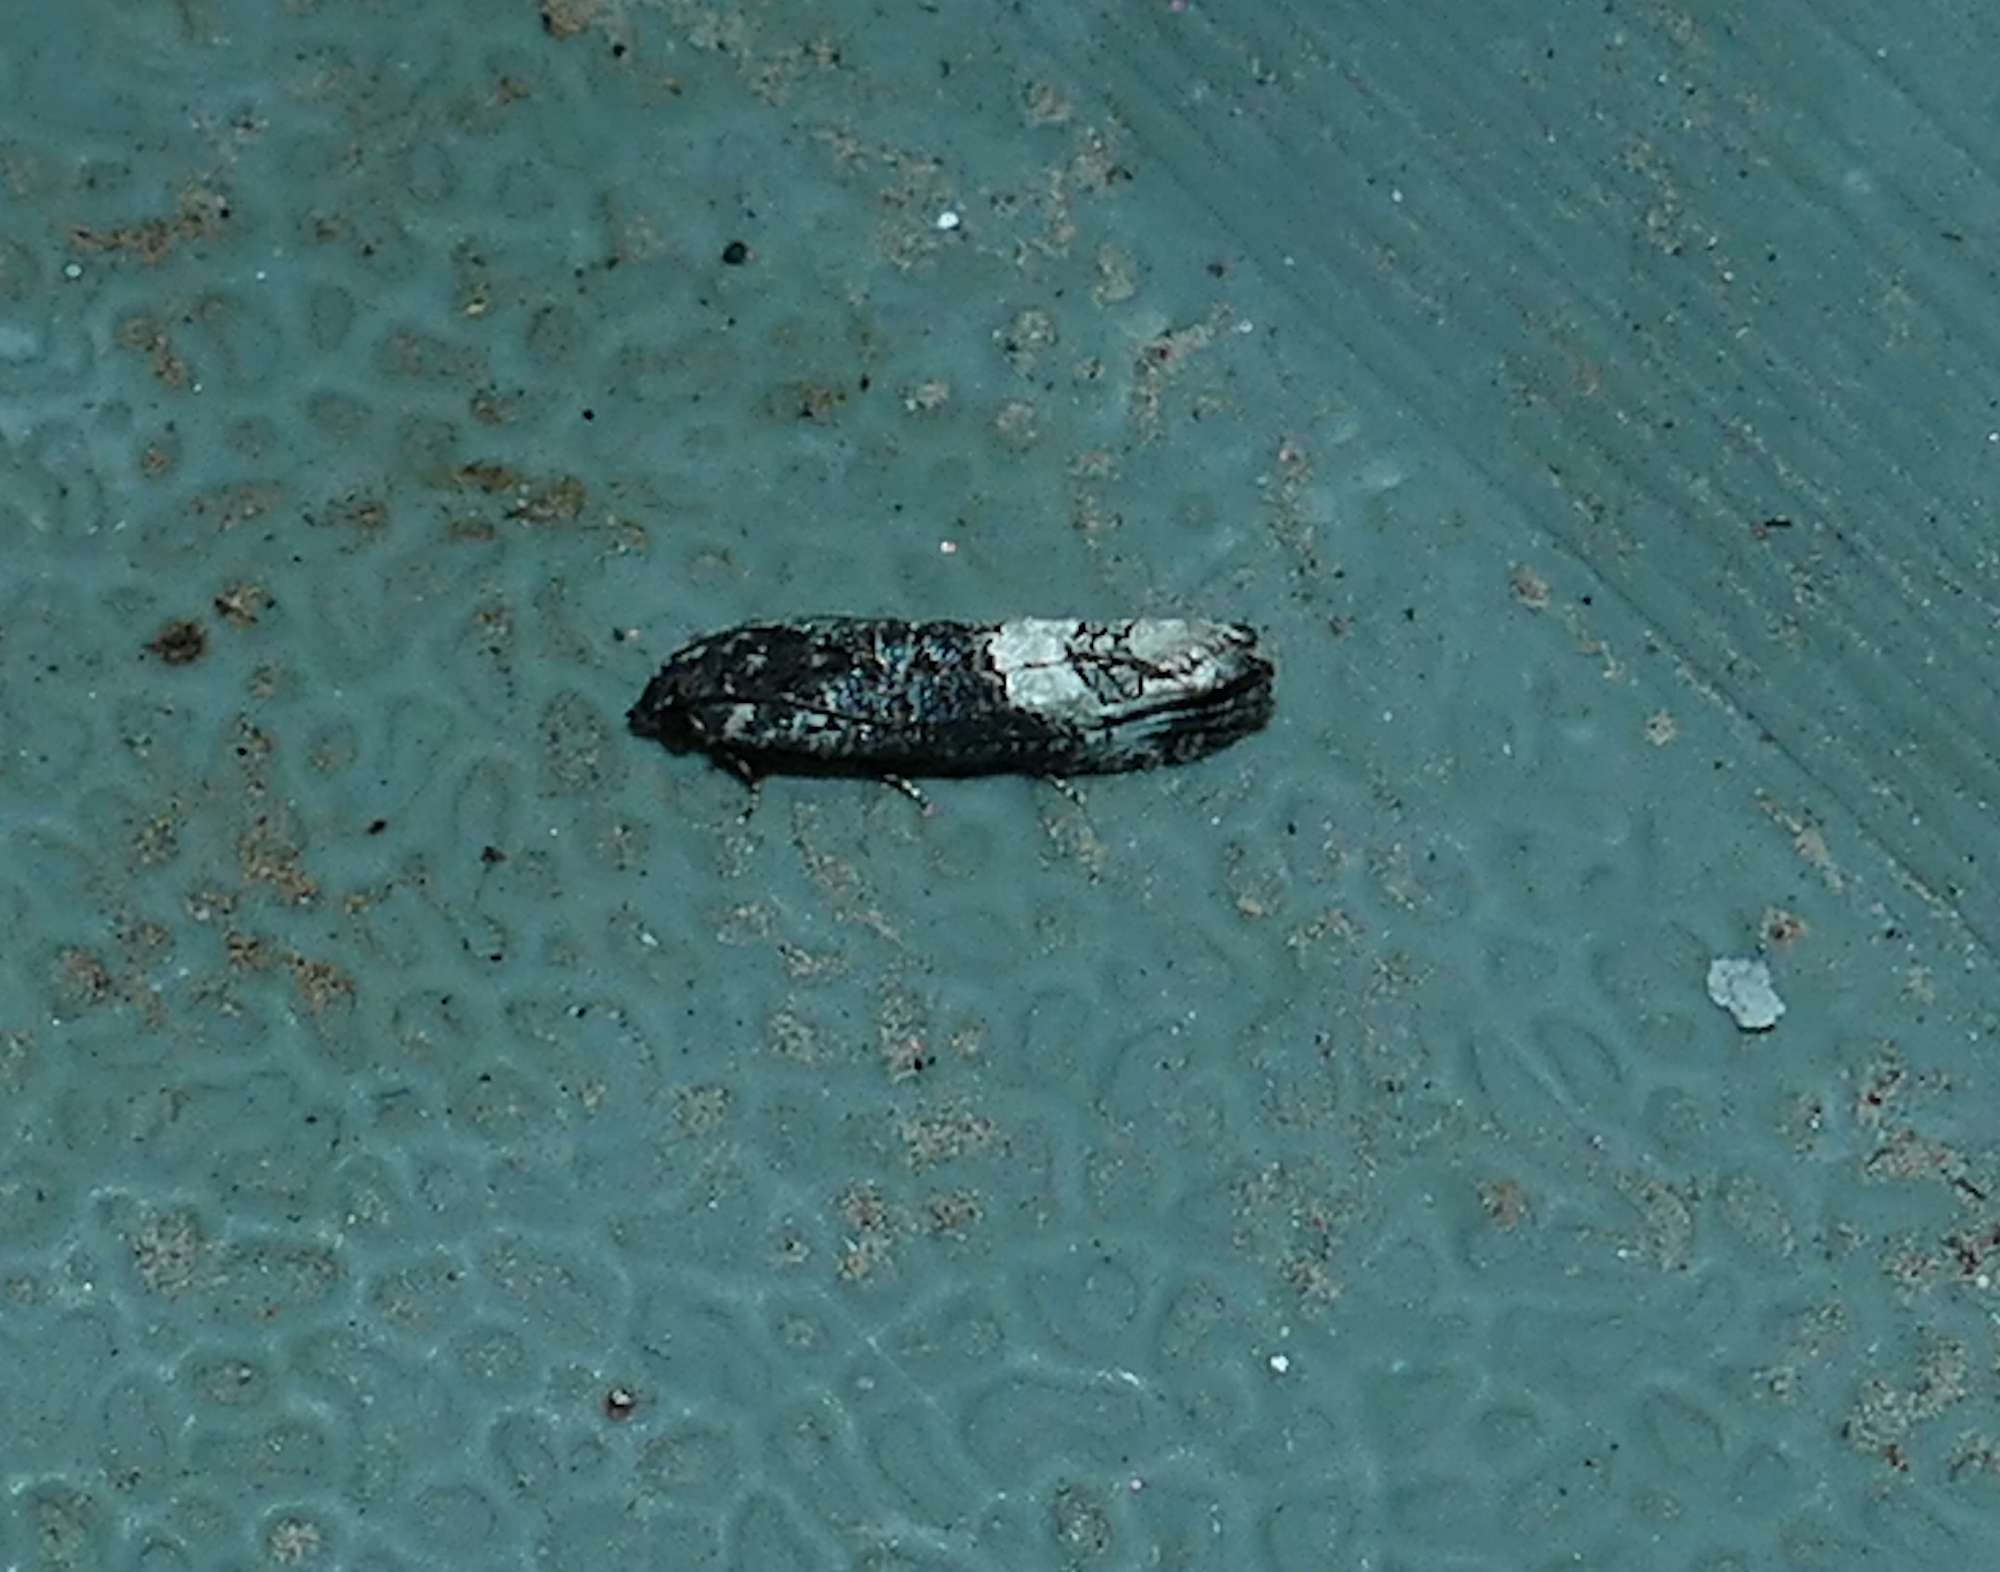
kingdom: Animalia
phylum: Arthropoda
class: Insecta
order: Lepidoptera
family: Tortricidae
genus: Ecdytolopha
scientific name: Ecdytolopha occidentana
